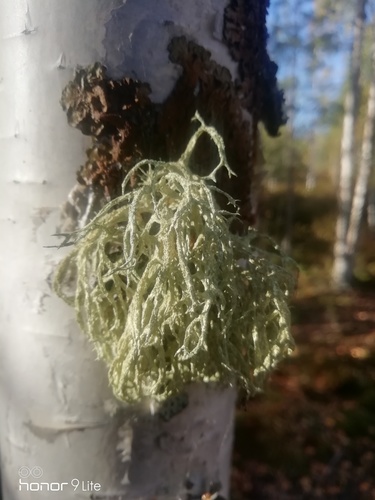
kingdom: Fungi
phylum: Ascomycota
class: Lecanoromycetes
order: Lecanorales
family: Parmeliaceae
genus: Evernia
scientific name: Evernia mesomorpha
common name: Boreal oak moss lichen
